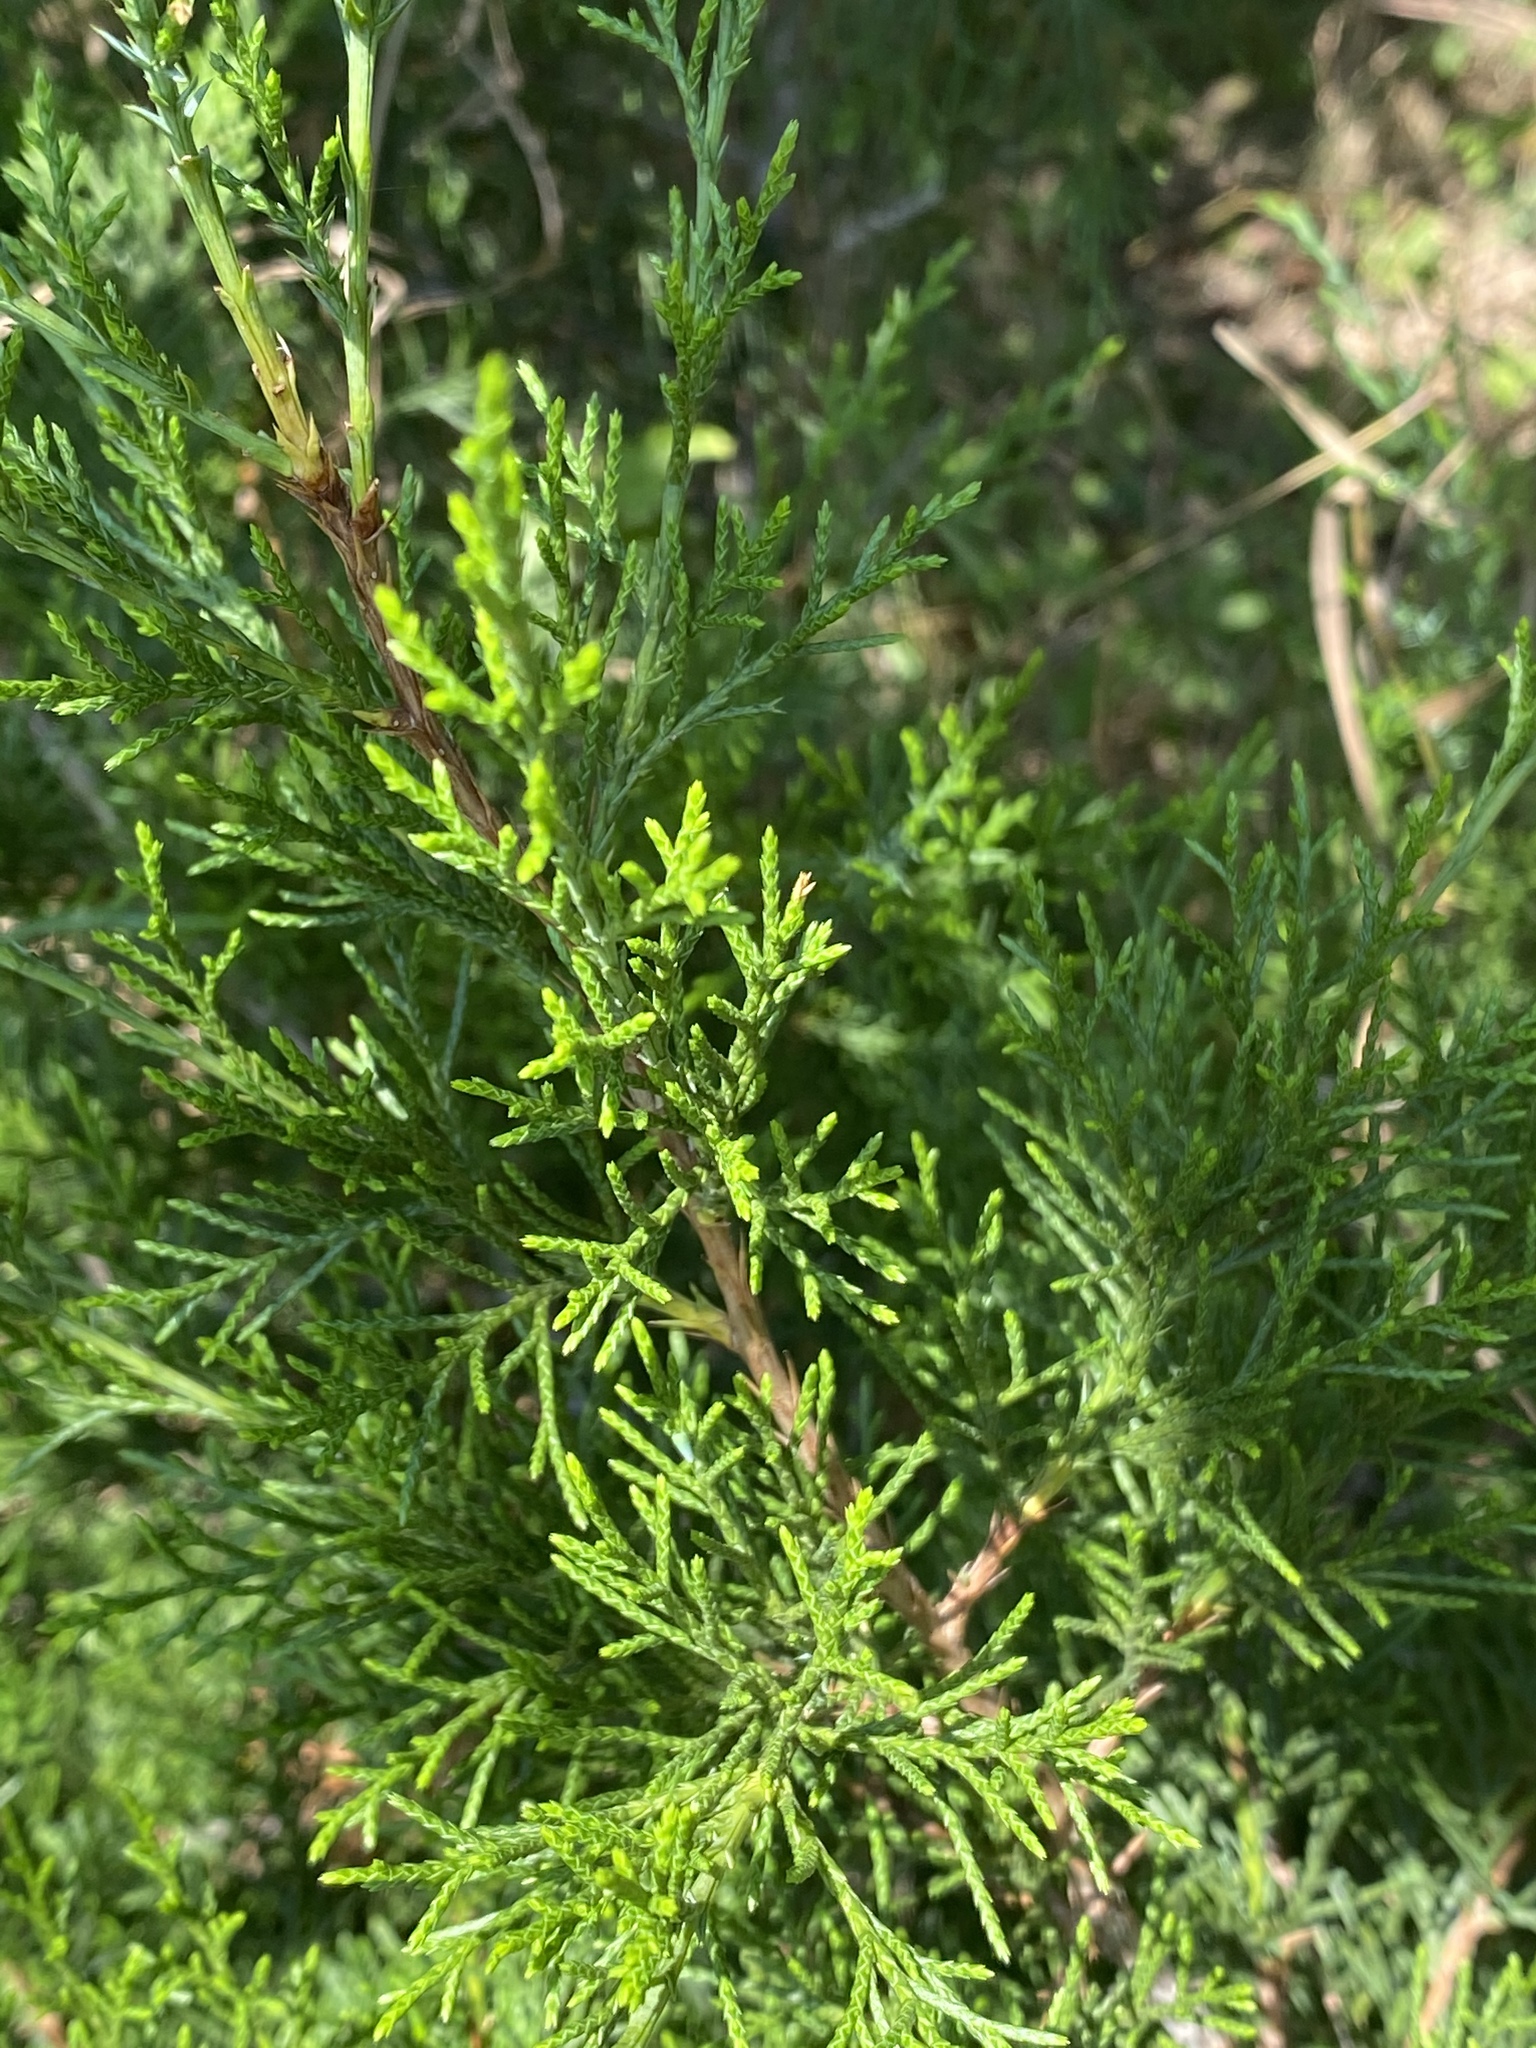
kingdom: Plantae
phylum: Tracheophyta
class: Pinopsida
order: Pinales
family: Cupressaceae
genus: Juniperus
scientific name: Juniperus virginiana
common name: Red juniper
